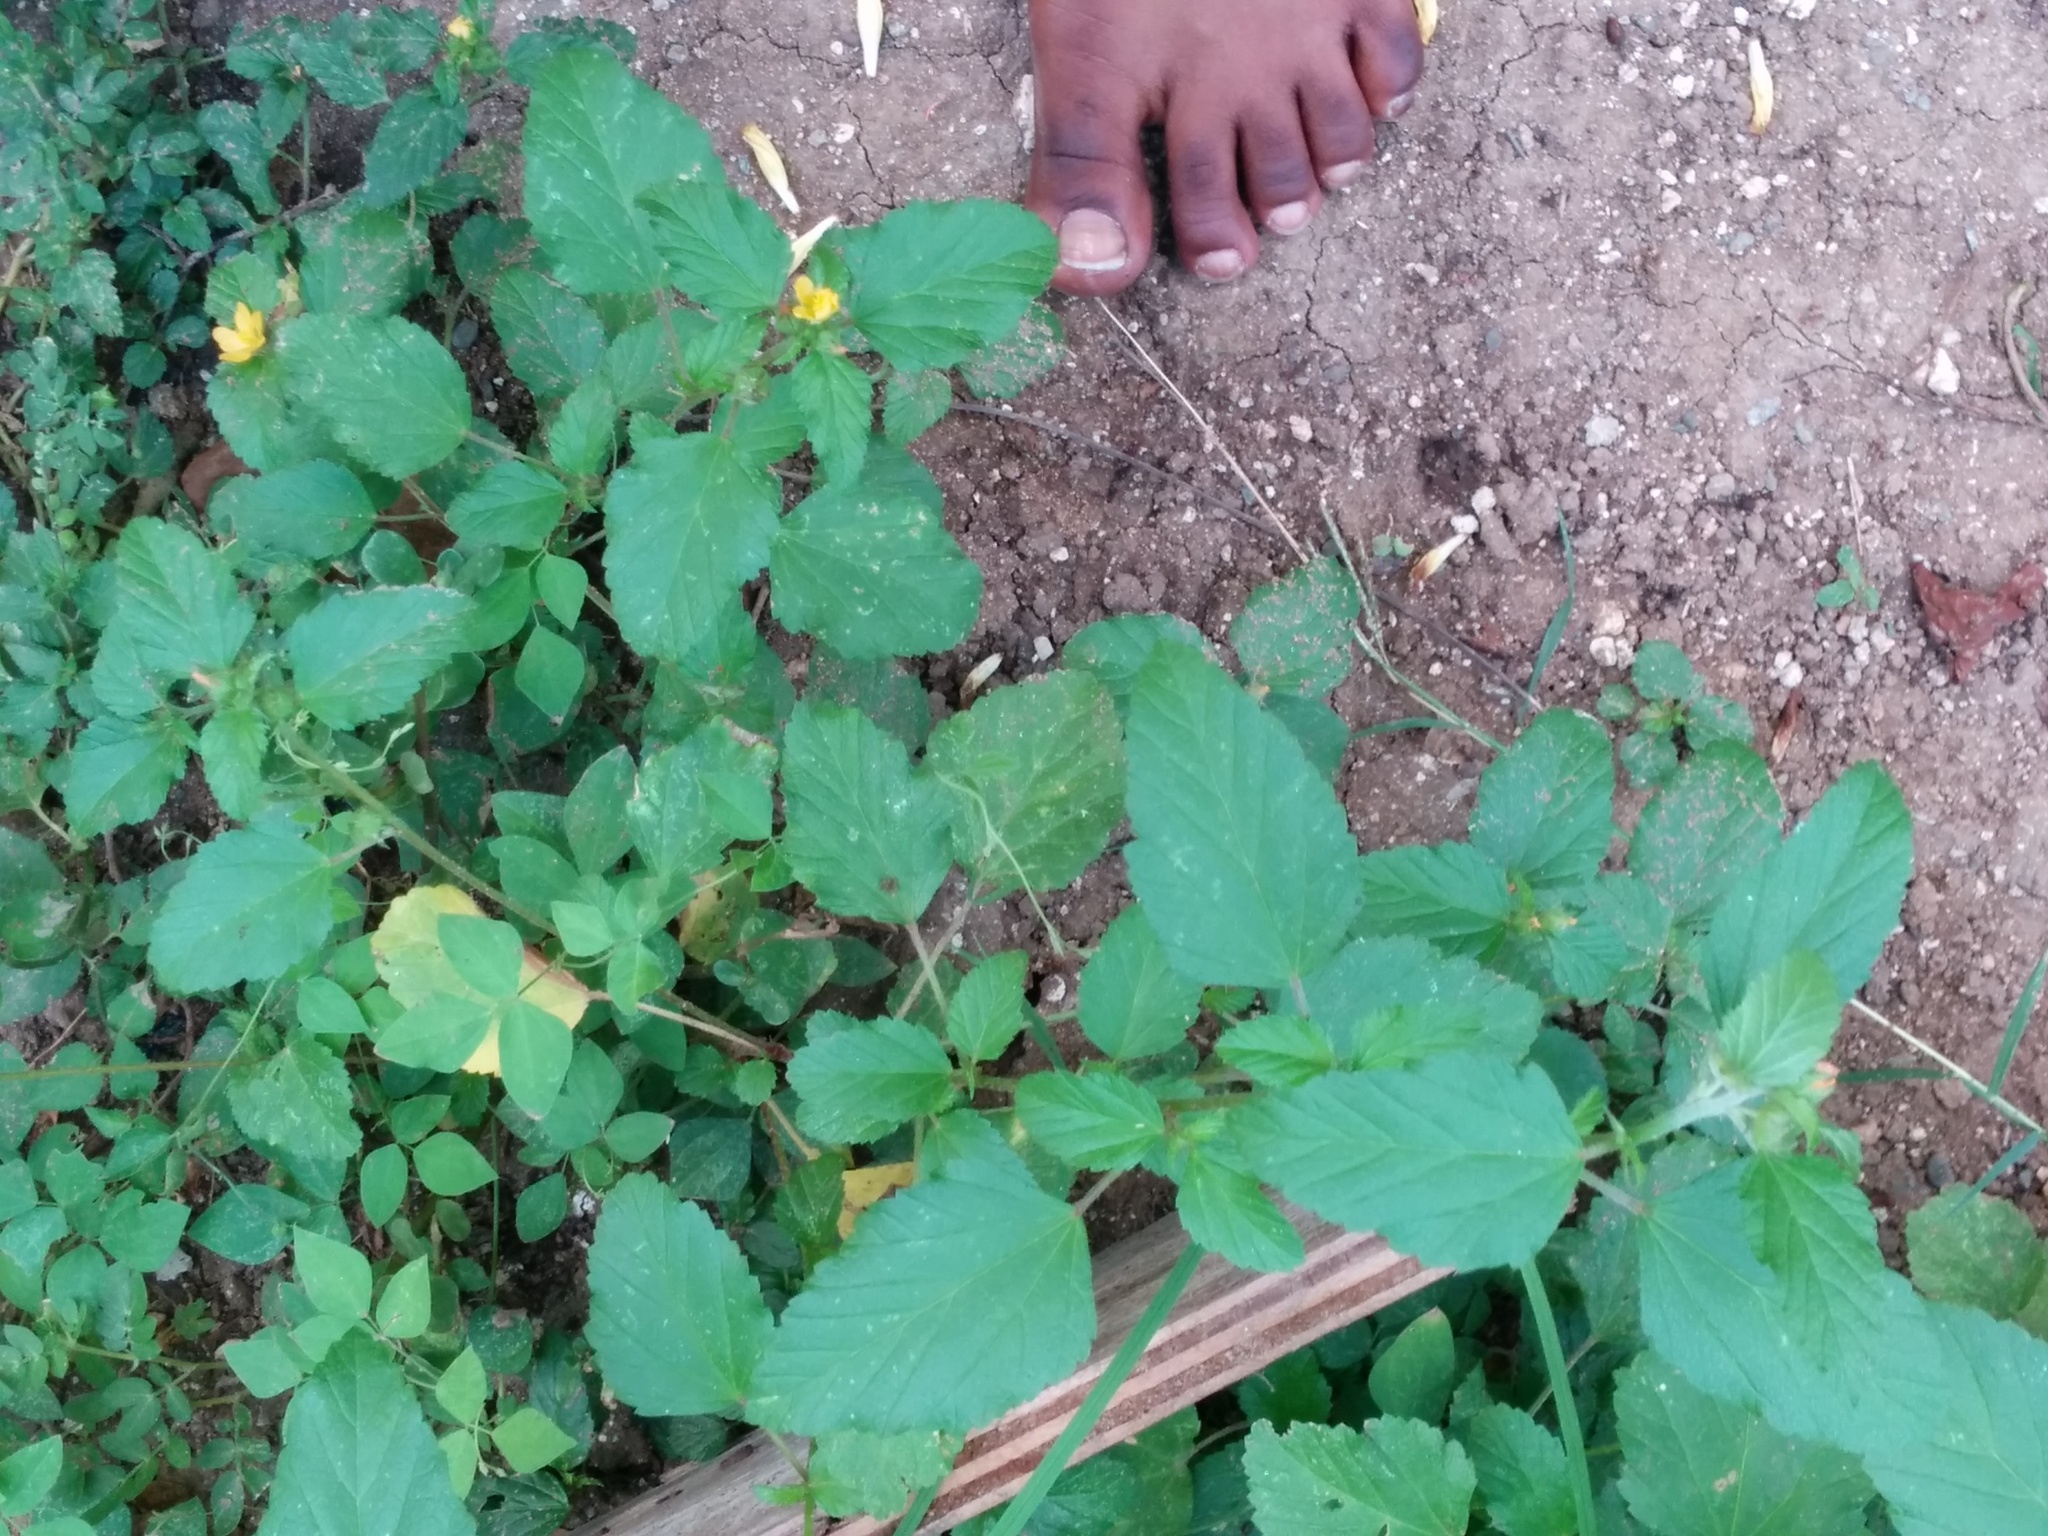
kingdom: Plantae
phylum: Tracheophyta
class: Magnoliopsida
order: Malvales
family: Malvaceae
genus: Malvastrum
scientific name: Malvastrum coromandelianum
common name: Threelobe false mallow
